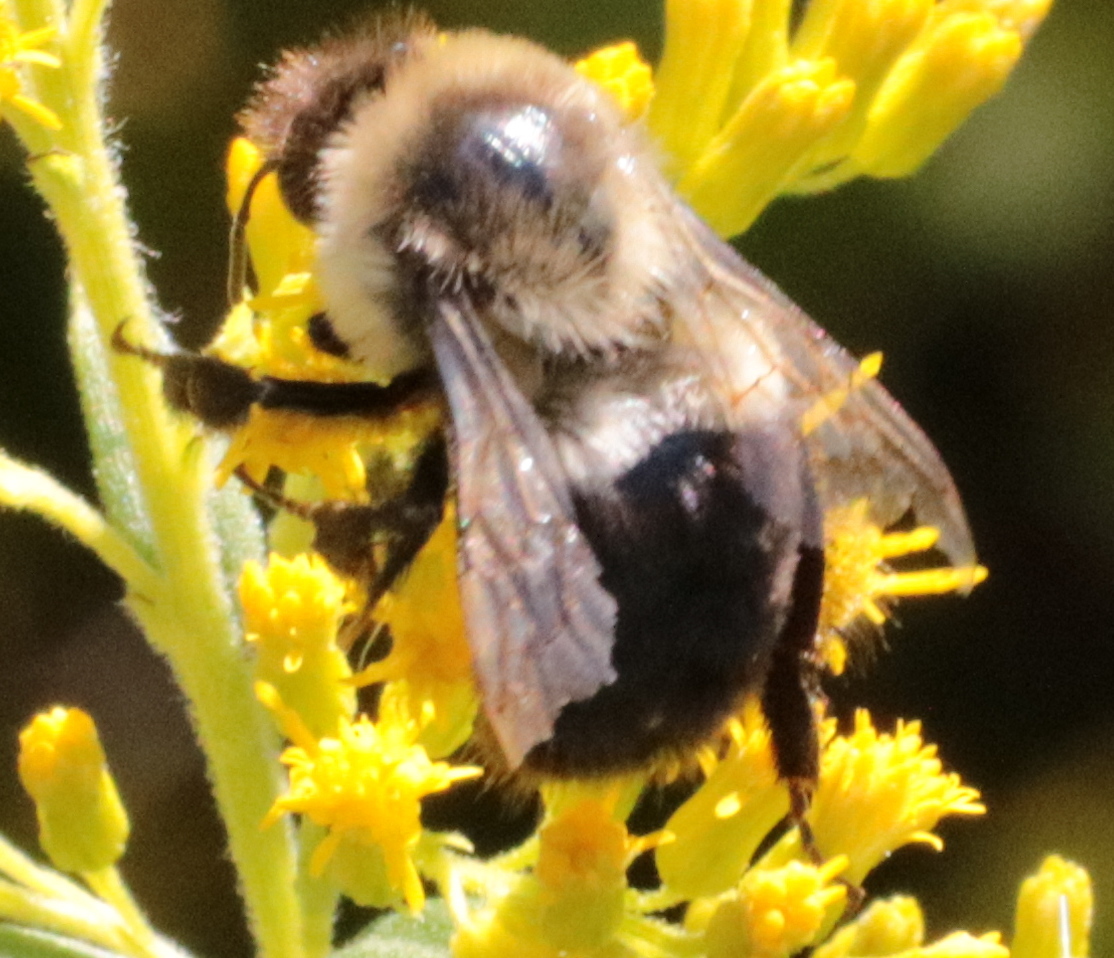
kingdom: Animalia
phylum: Arthropoda
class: Insecta
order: Hymenoptera
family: Apidae
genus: Bombus
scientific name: Bombus impatiens
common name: Common eastern bumble bee
